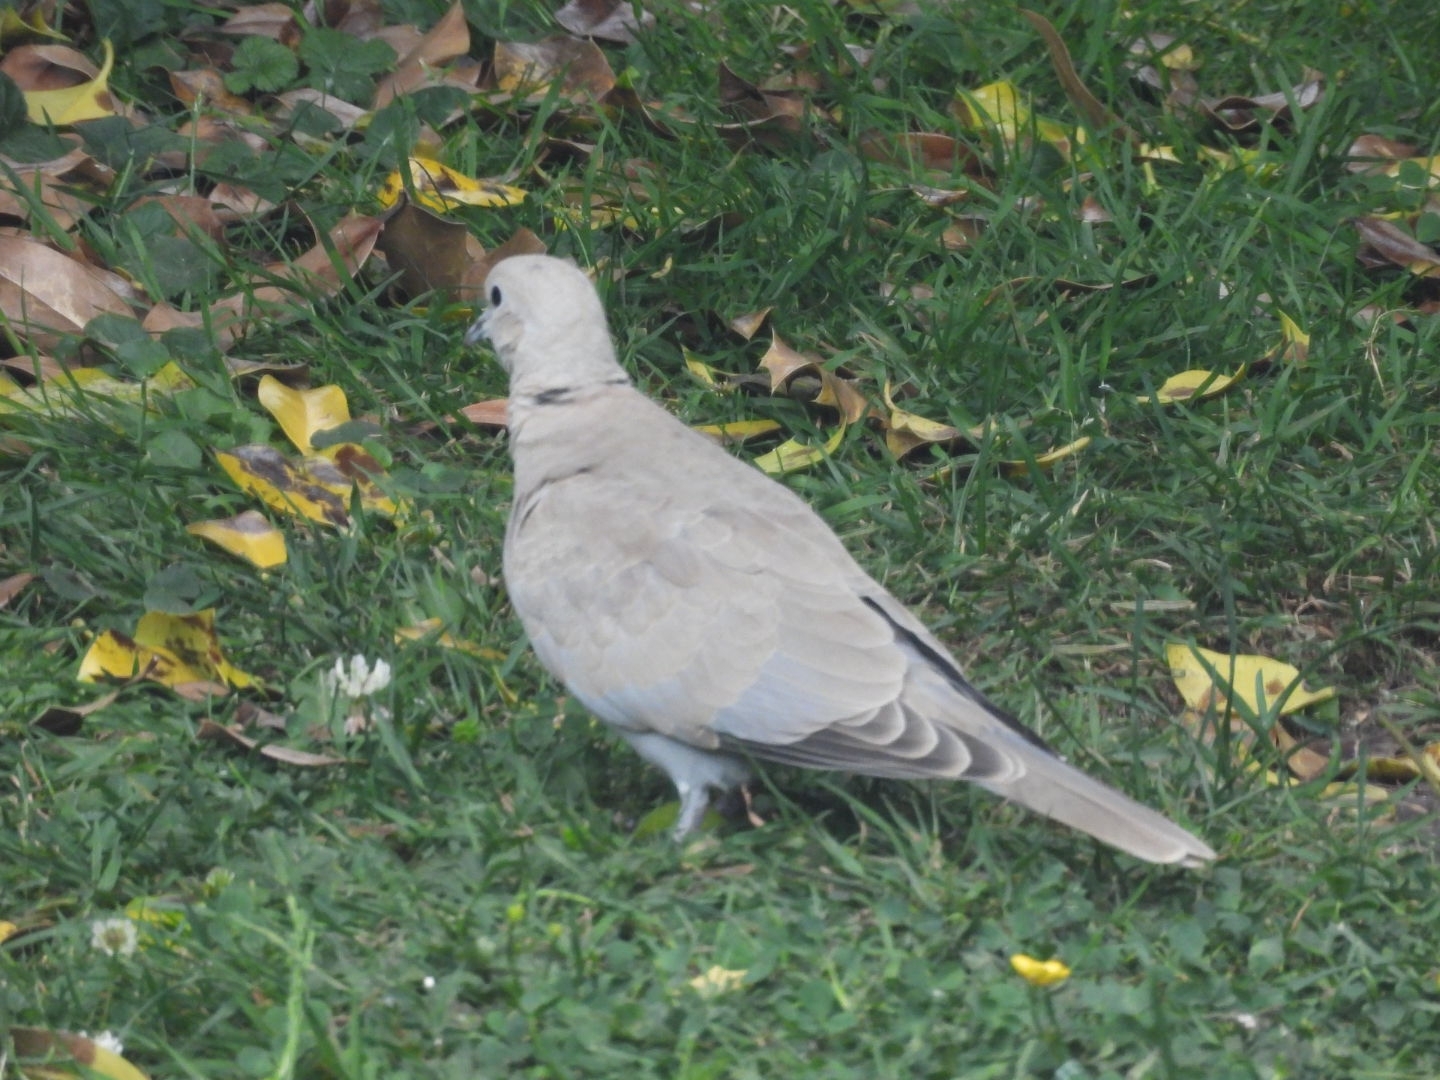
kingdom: Animalia
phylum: Chordata
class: Aves
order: Columbiformes
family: Columbidae
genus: Streptopelia
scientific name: Streptopelia decaocto
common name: Eurasian collared dove
